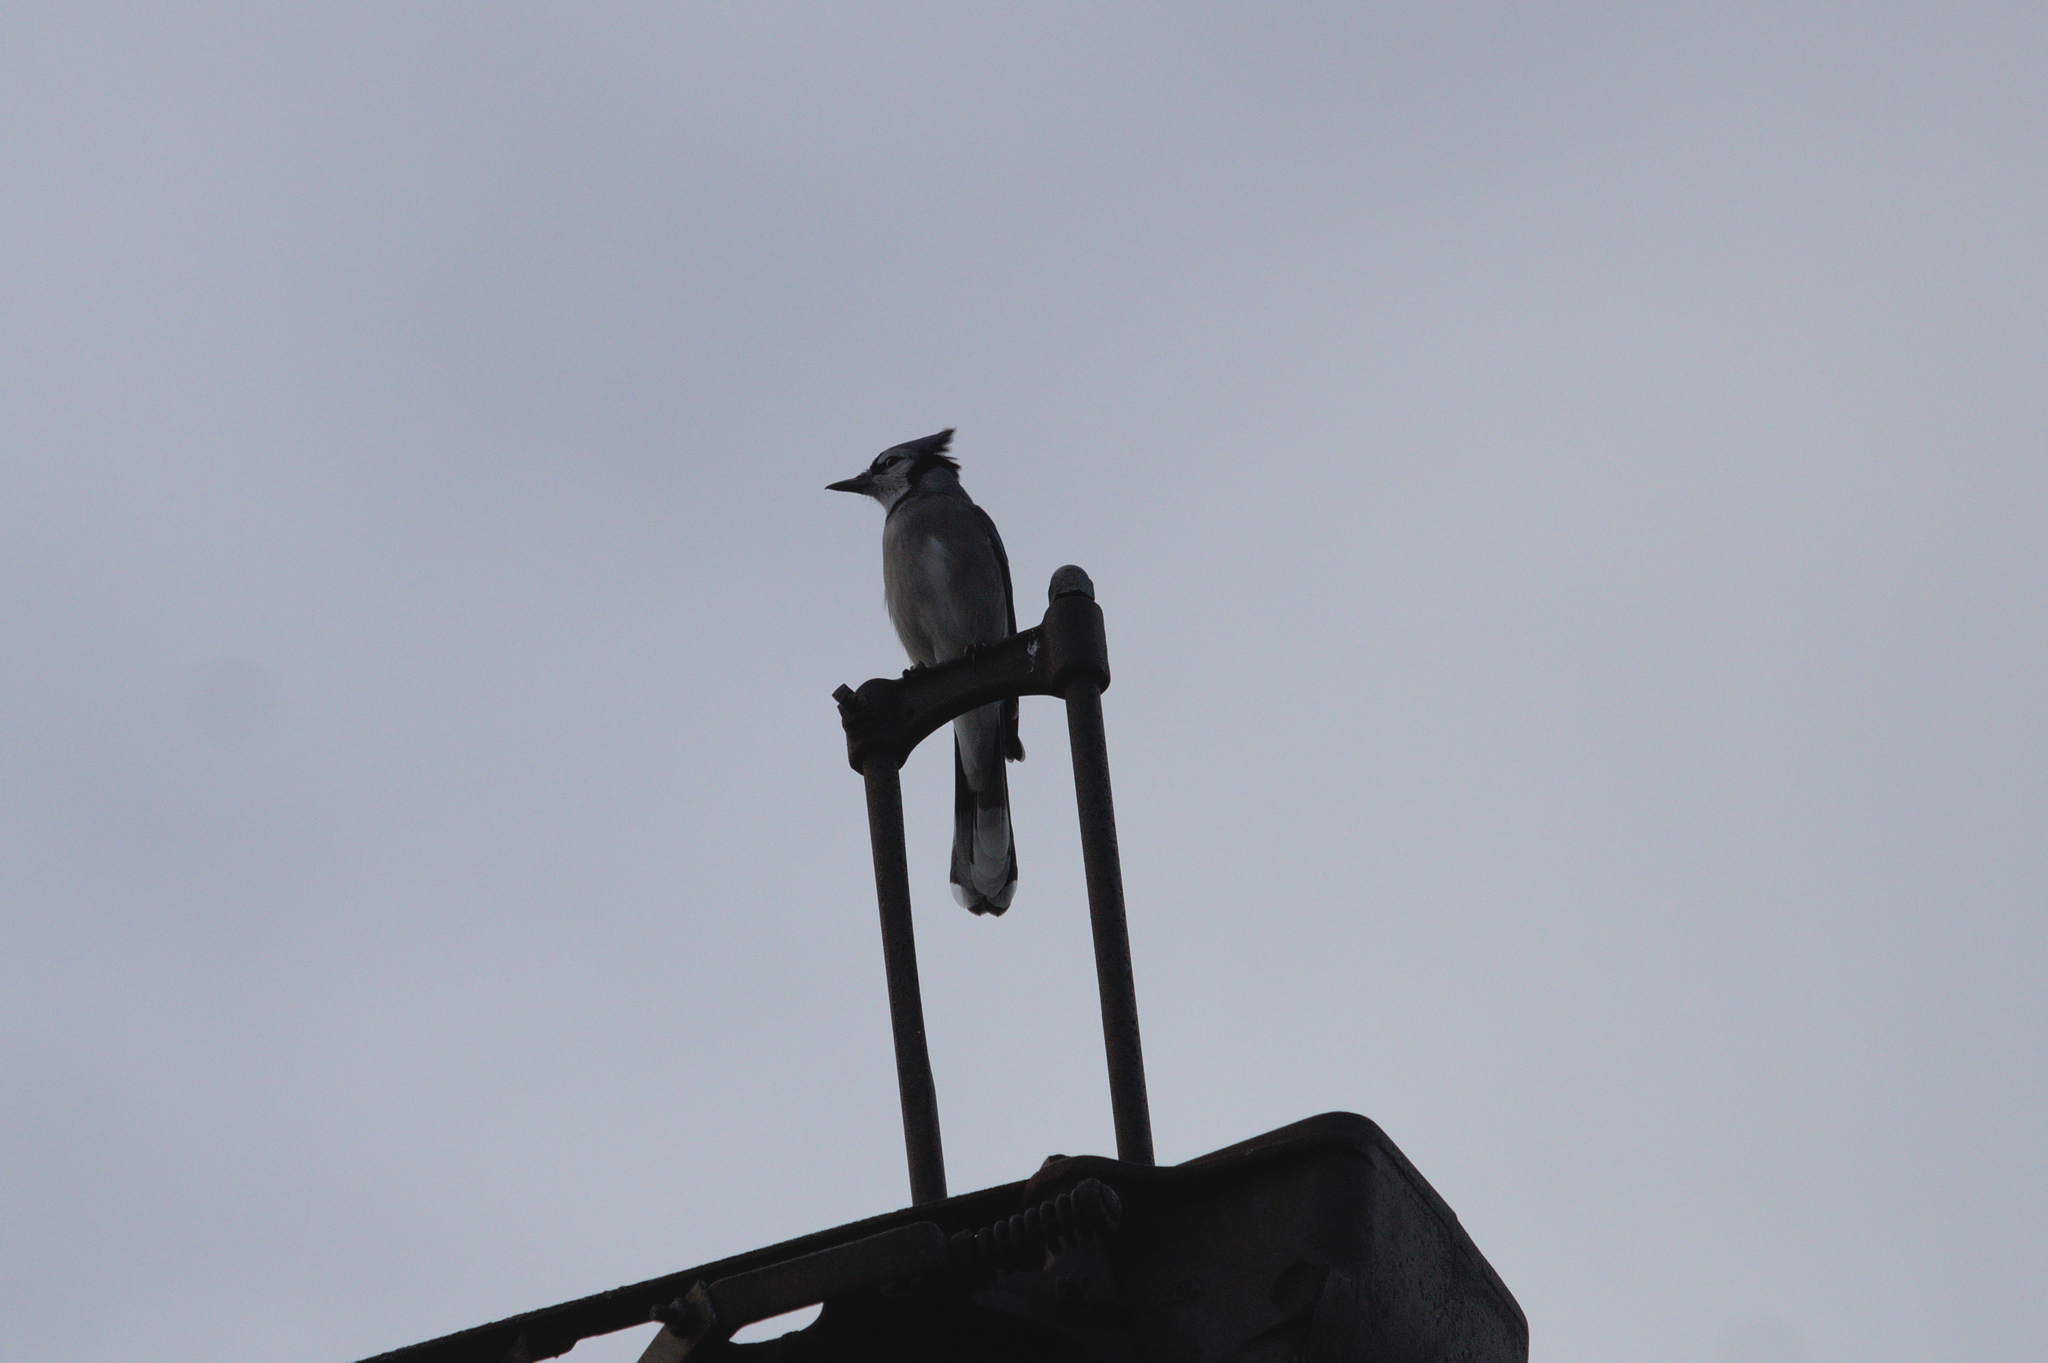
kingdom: Animalia
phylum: Chordata
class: Aves
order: Passeriformes
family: Corvidae
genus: Cyanocitta
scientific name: Cyanocitta cristata
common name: Blue jay
